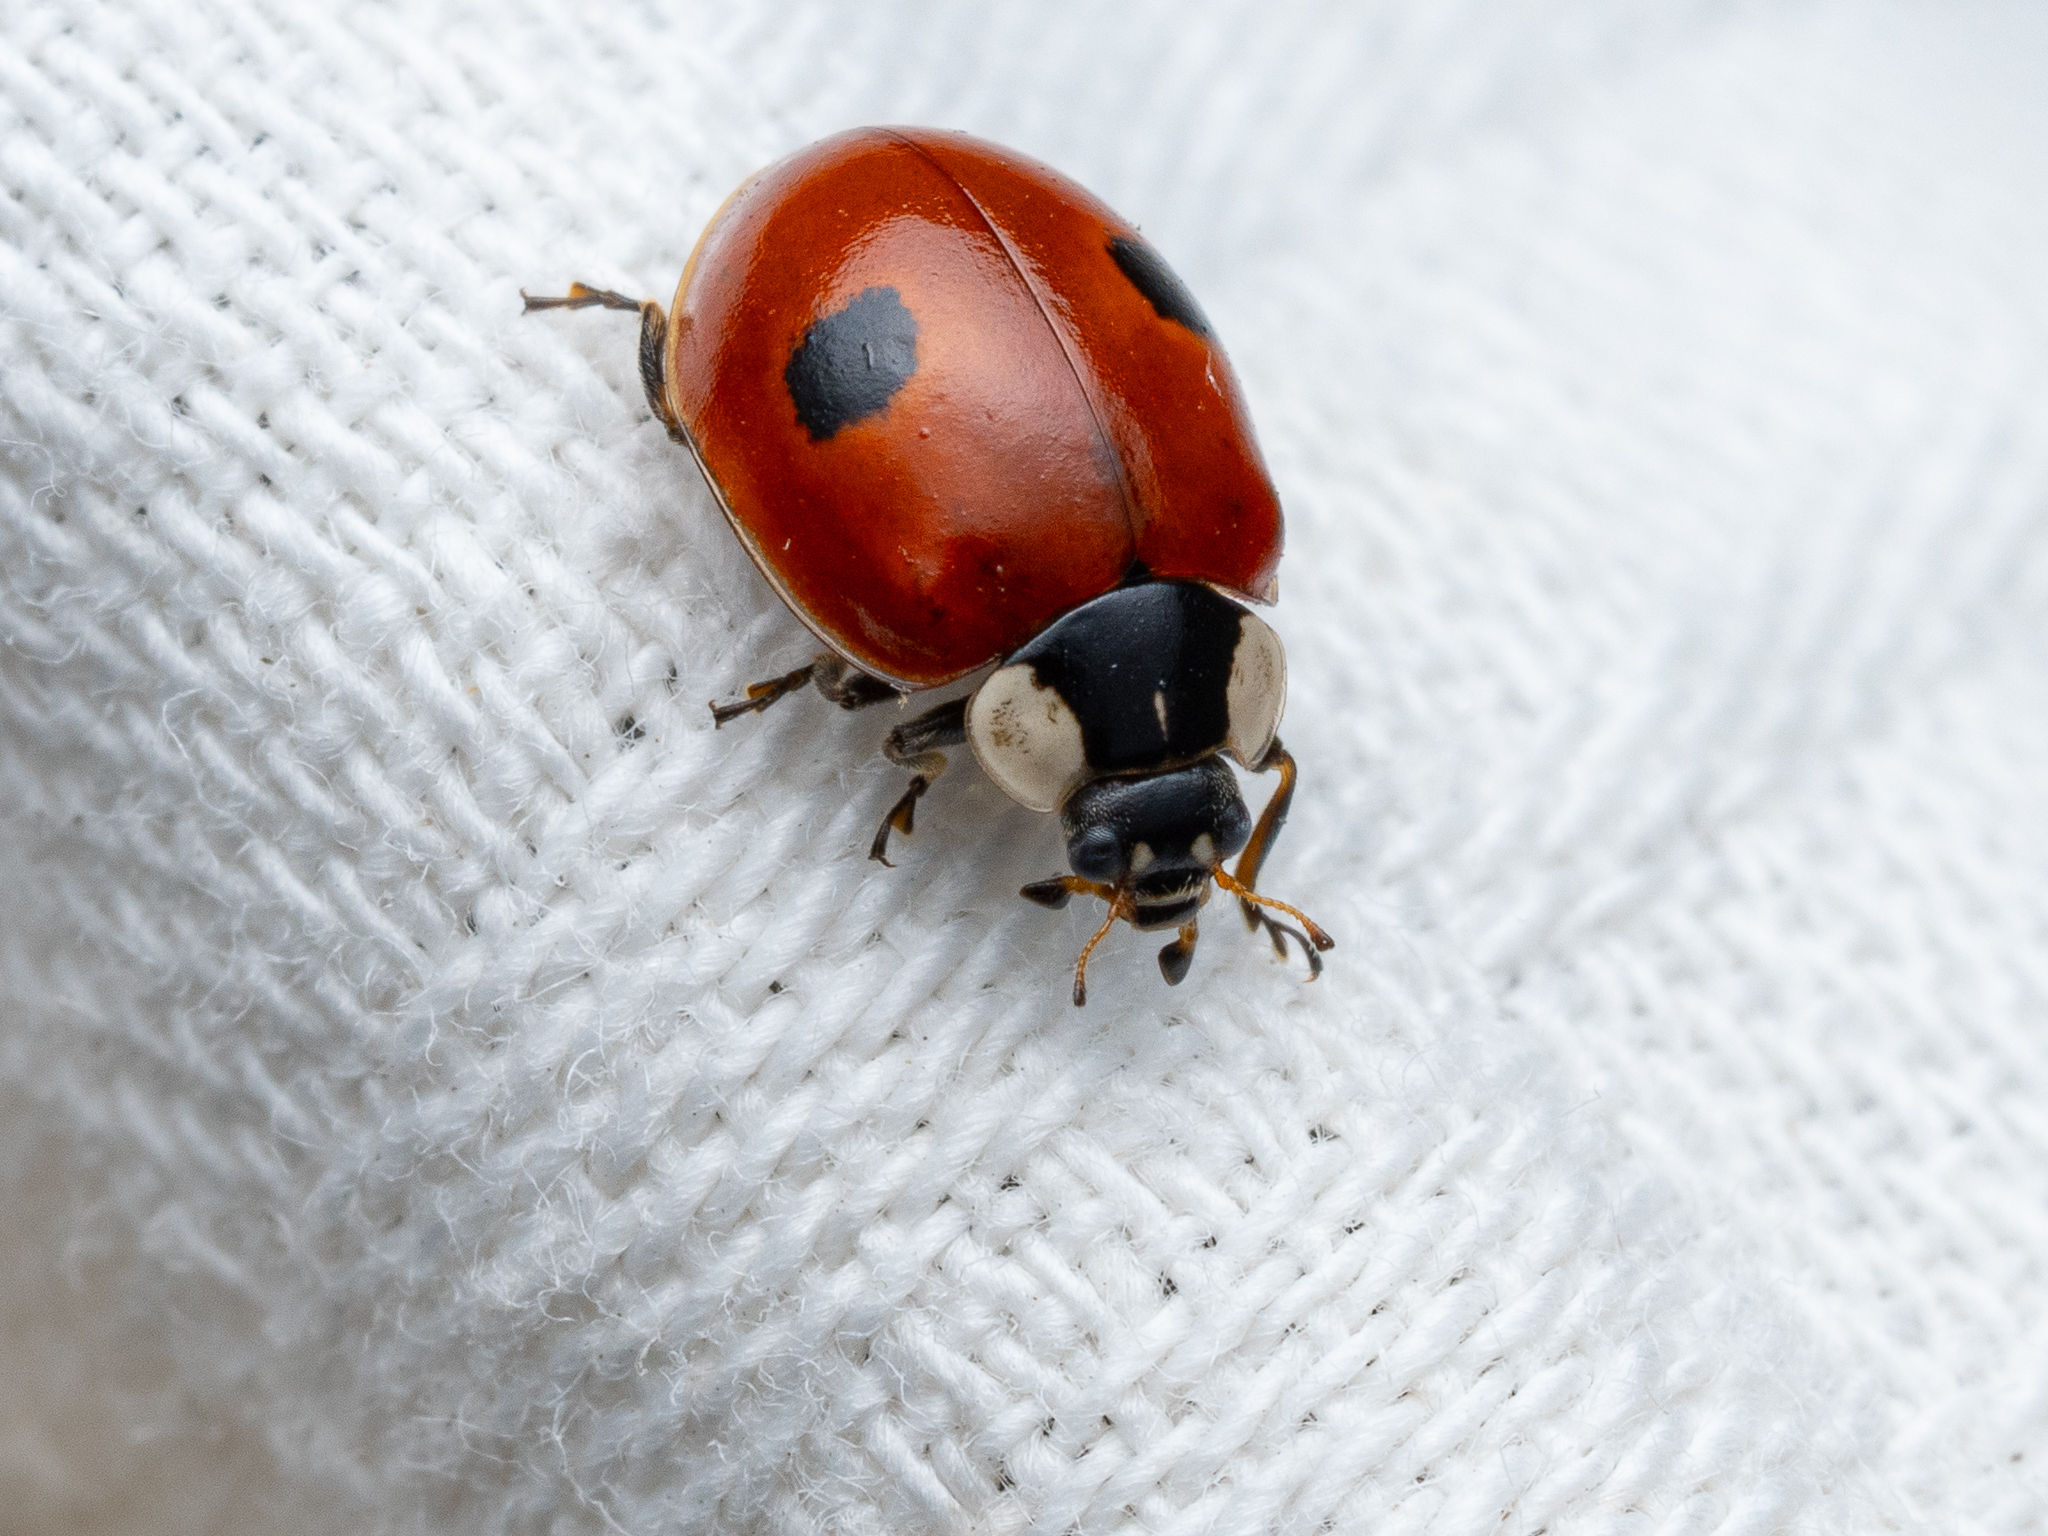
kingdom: Animalia
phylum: Arthropoda
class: Insecta
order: Coleoptera
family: Coccinellidae
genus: Adalia
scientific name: Adalia bipunctata
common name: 2-spot ladybird
